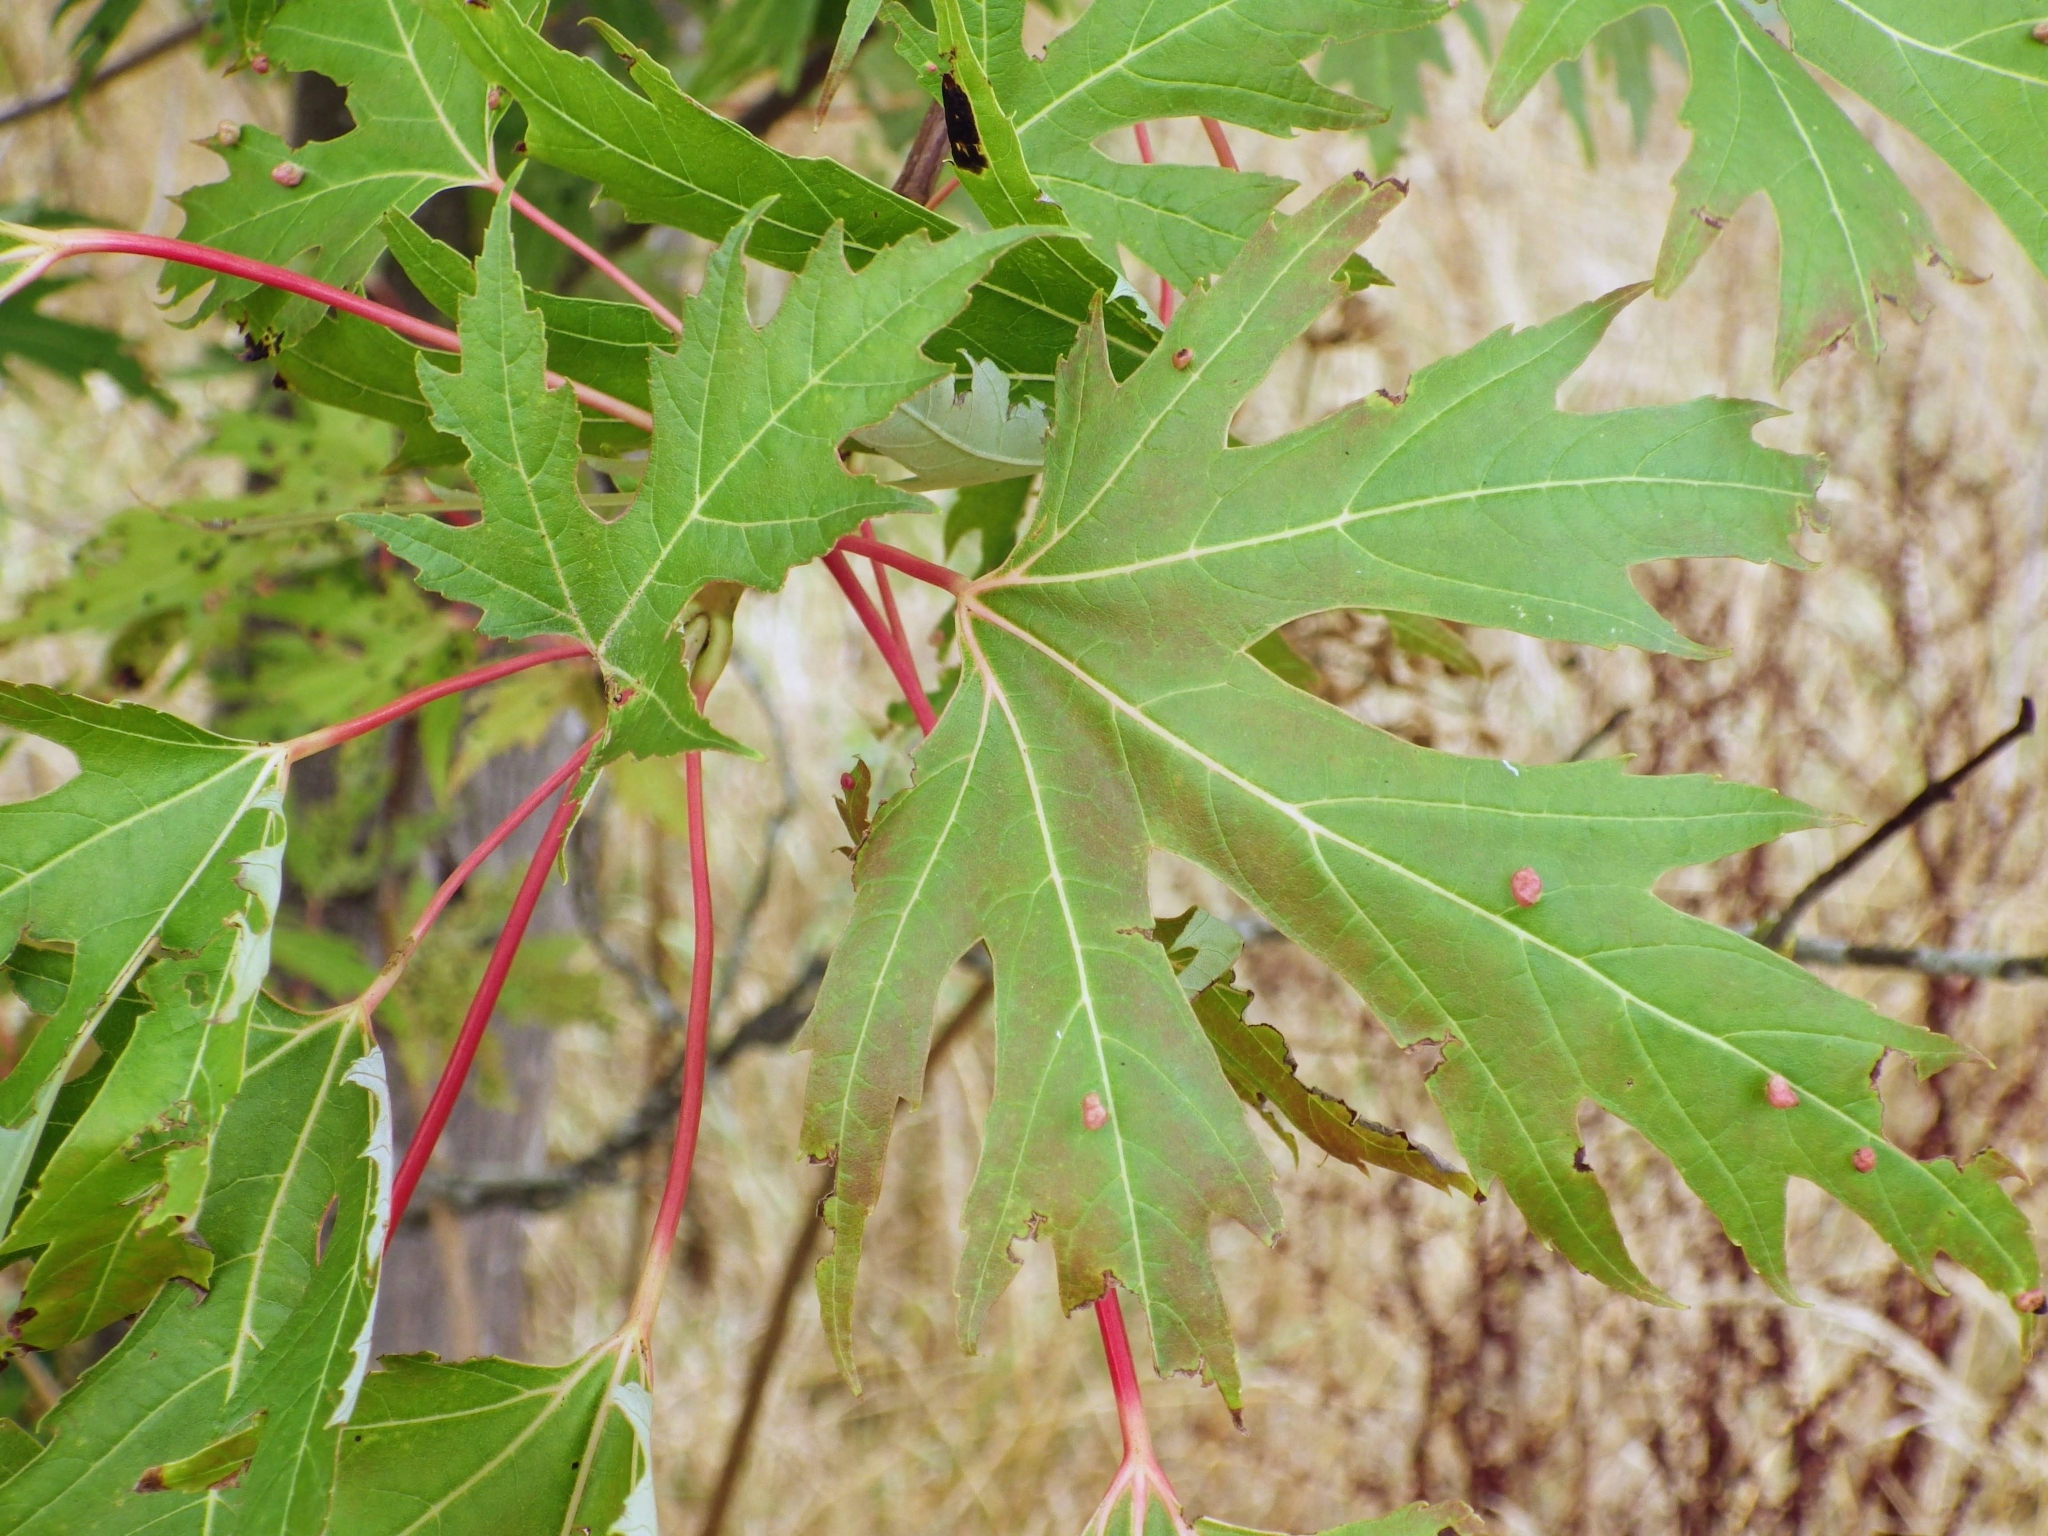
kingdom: Plantae
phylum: Tracheophyta
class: Magnoliopsida
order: Sapindales
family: Sapindaceae
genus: Acer
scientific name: Acer saccharinum
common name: Silver maple
